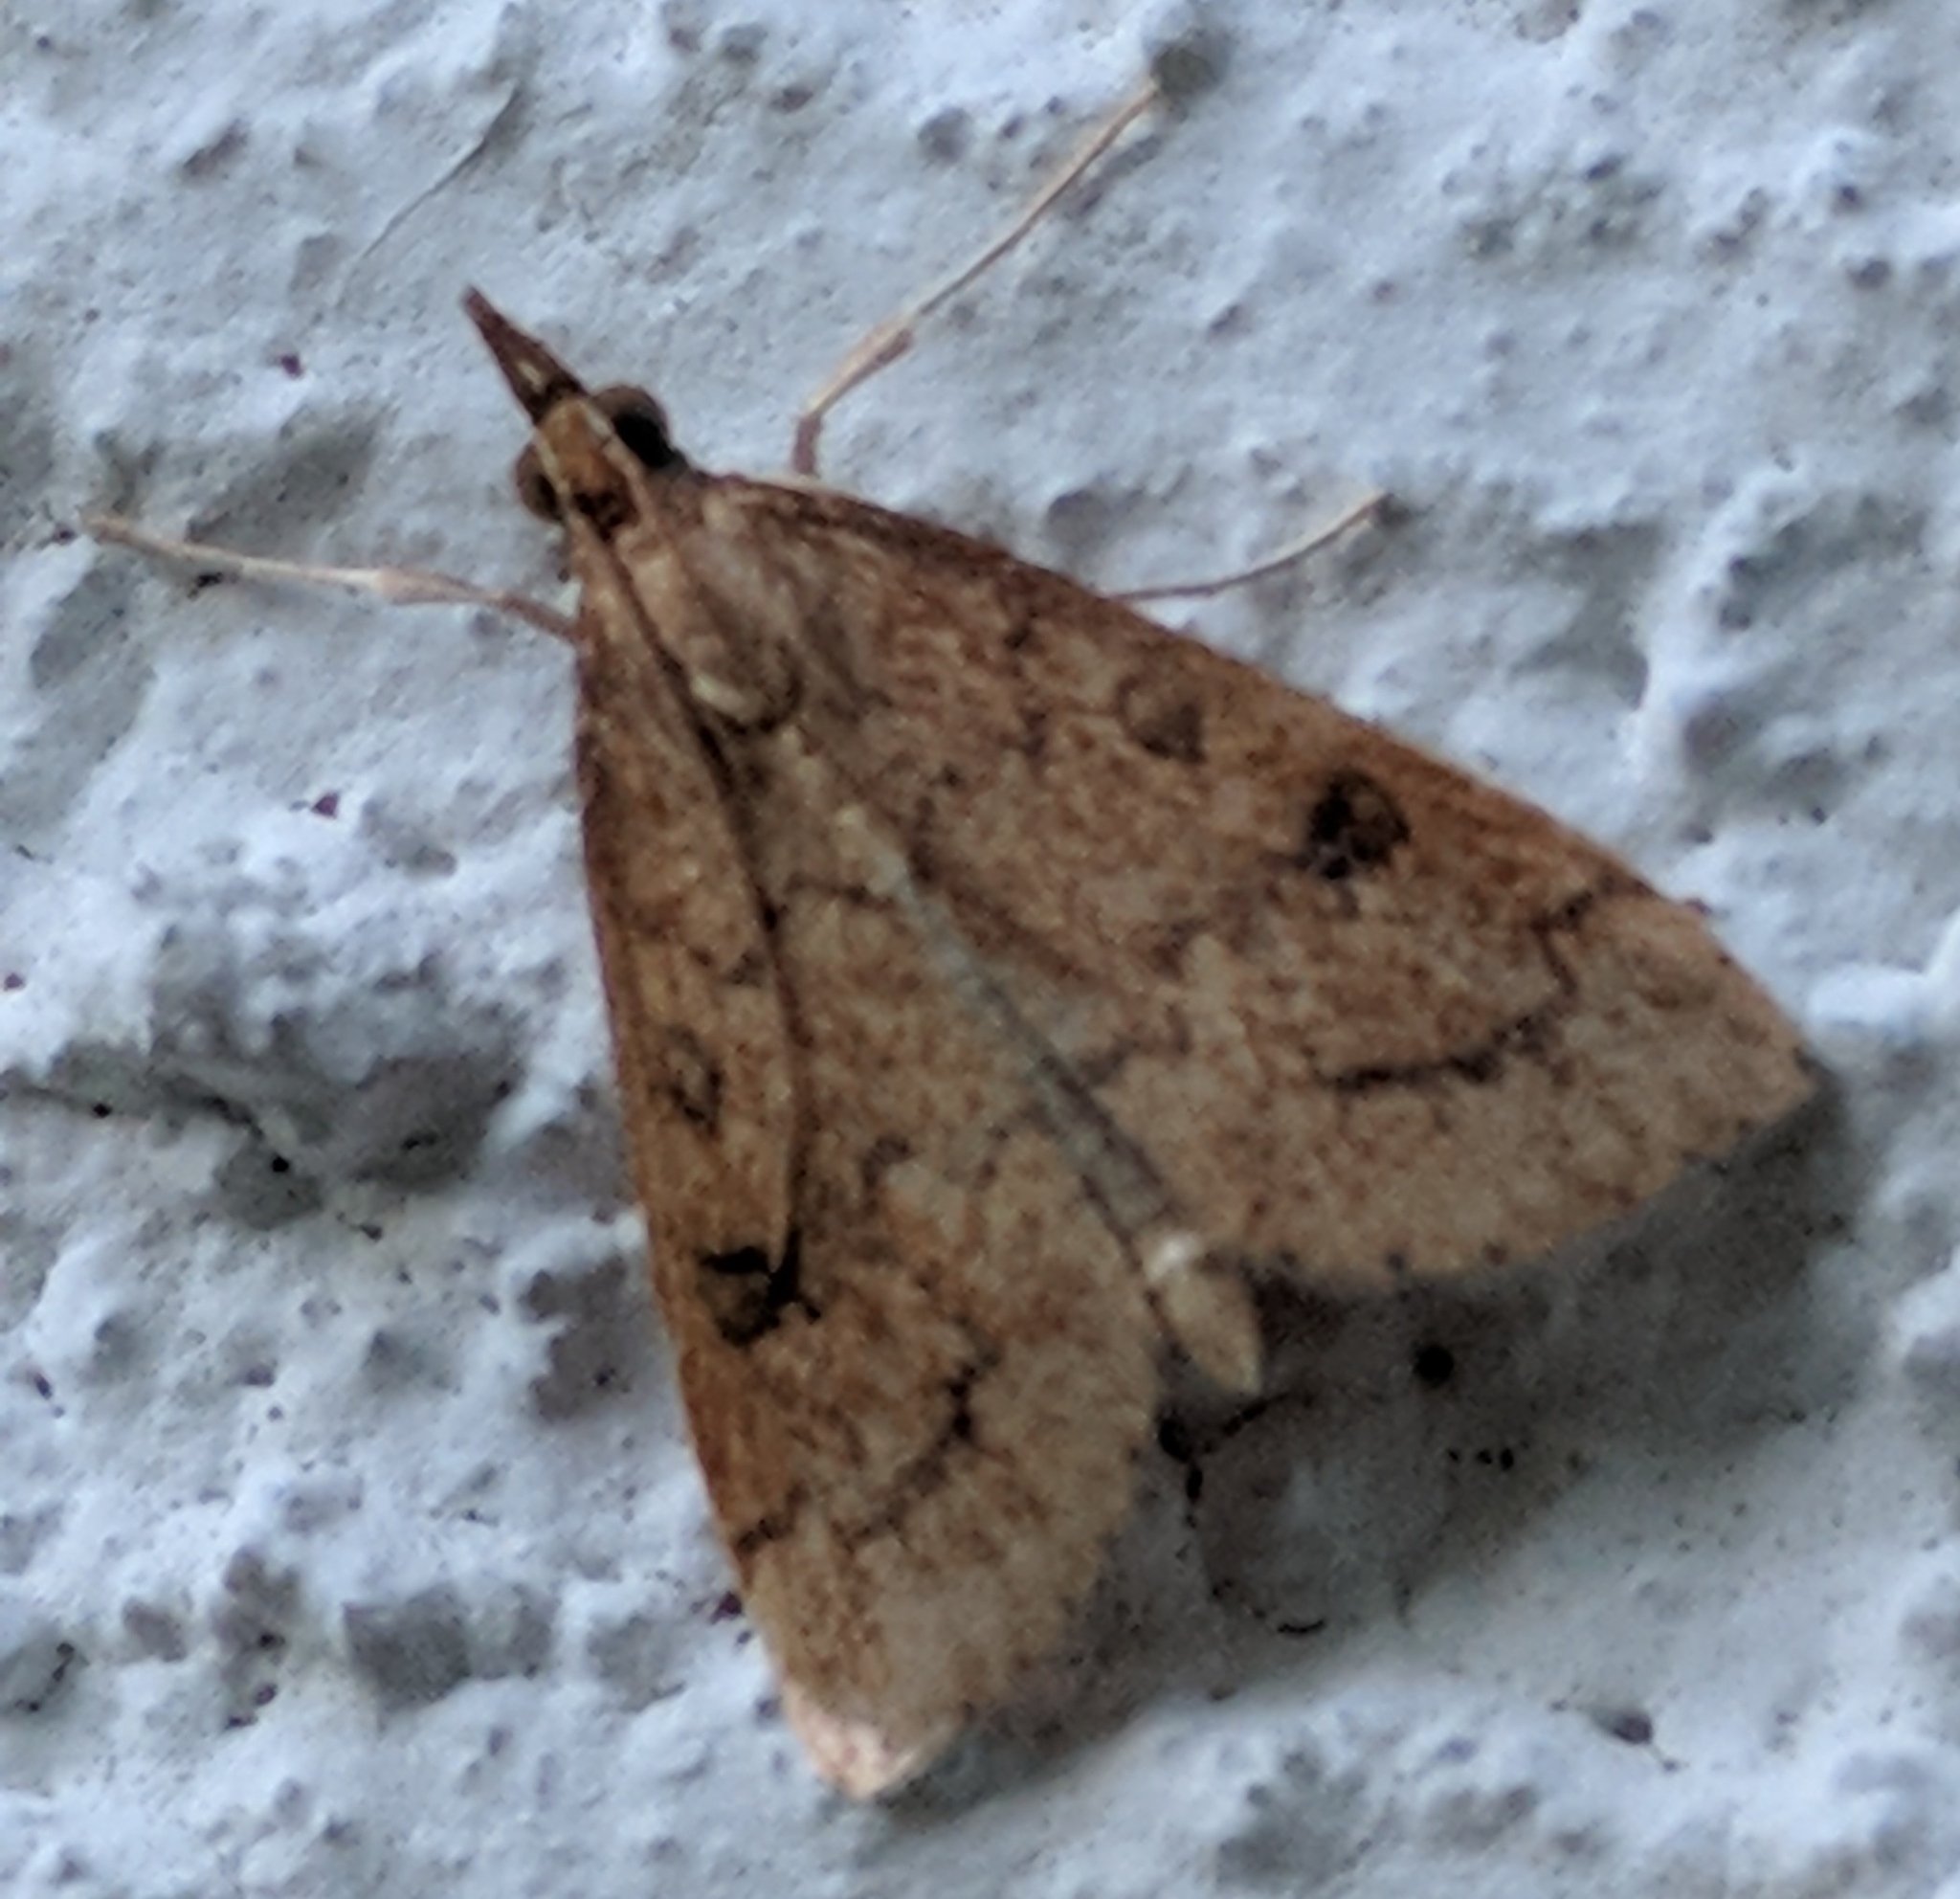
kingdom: Animalia
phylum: Arthropoda
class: Insecta
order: Lepidoptera
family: Crambidae
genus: Udea
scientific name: Udea rubigalis
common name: Celery leaftier moth
